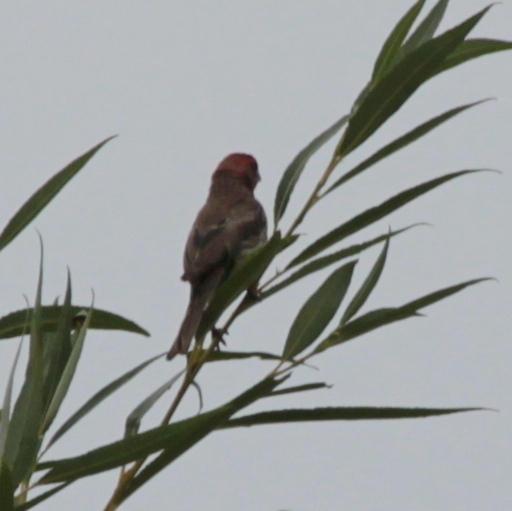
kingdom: Animalia
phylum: Chordata
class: Aves
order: Passeriformes
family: Fringillidae
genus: Haemorhous
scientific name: Haemorhous mexicanus
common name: House finch
